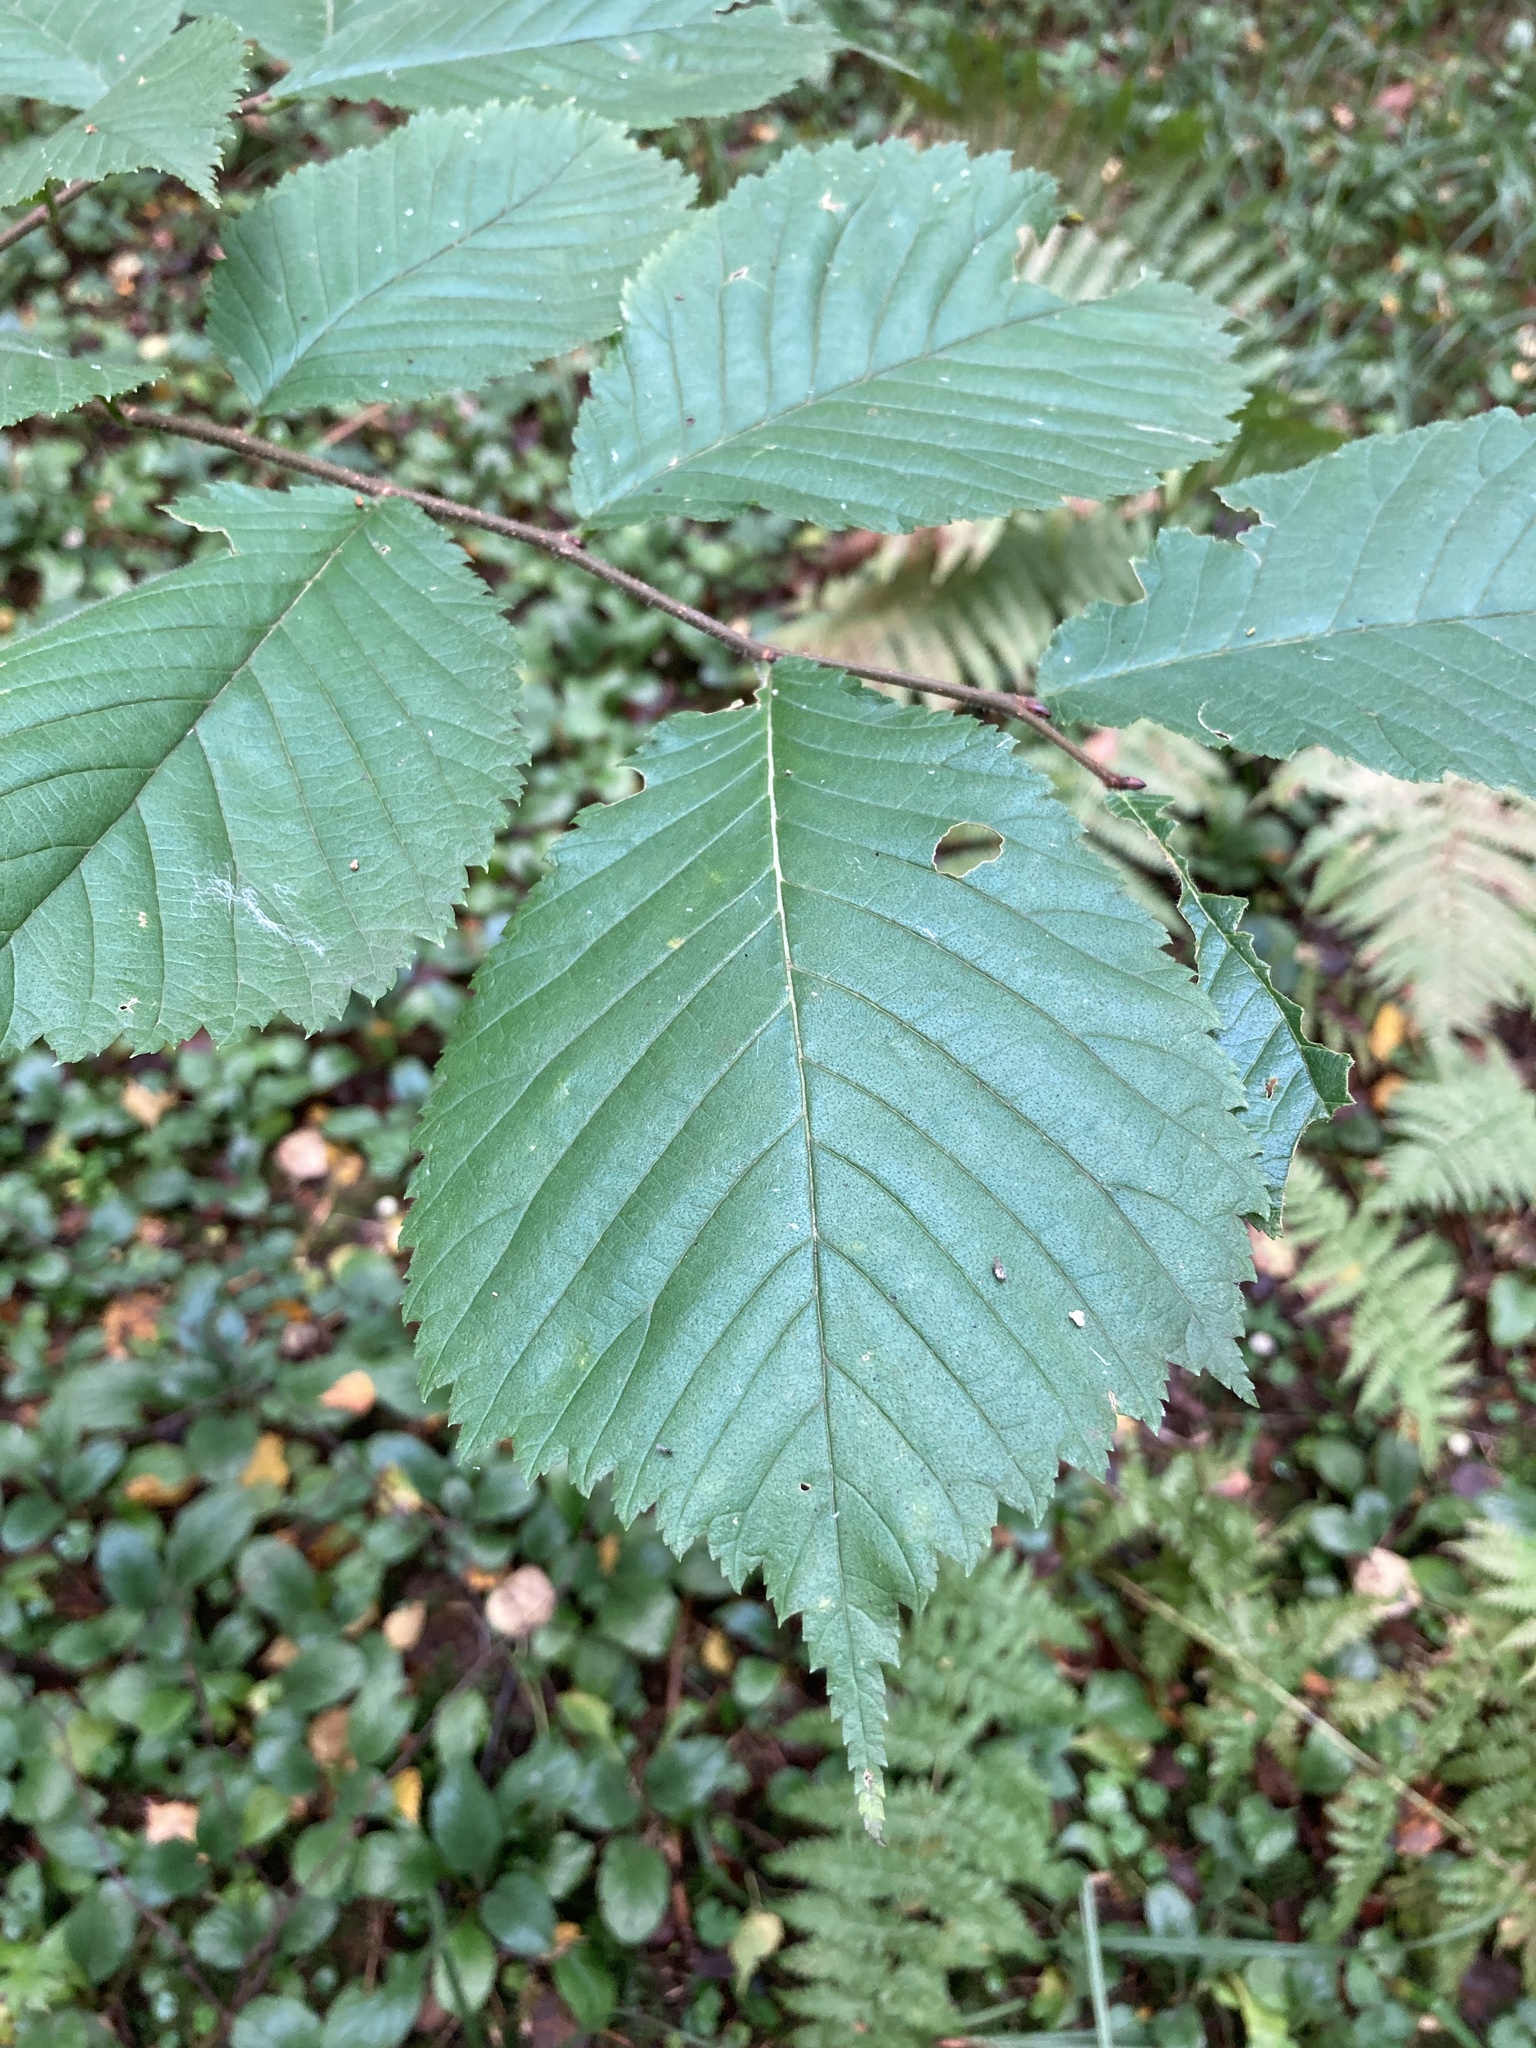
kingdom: Plantae
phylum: Tracheophyta
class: Magnoliopsida
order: Rosales
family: Ulmaceae
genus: Ulmus
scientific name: Ulmus glabra
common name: Wych elm
